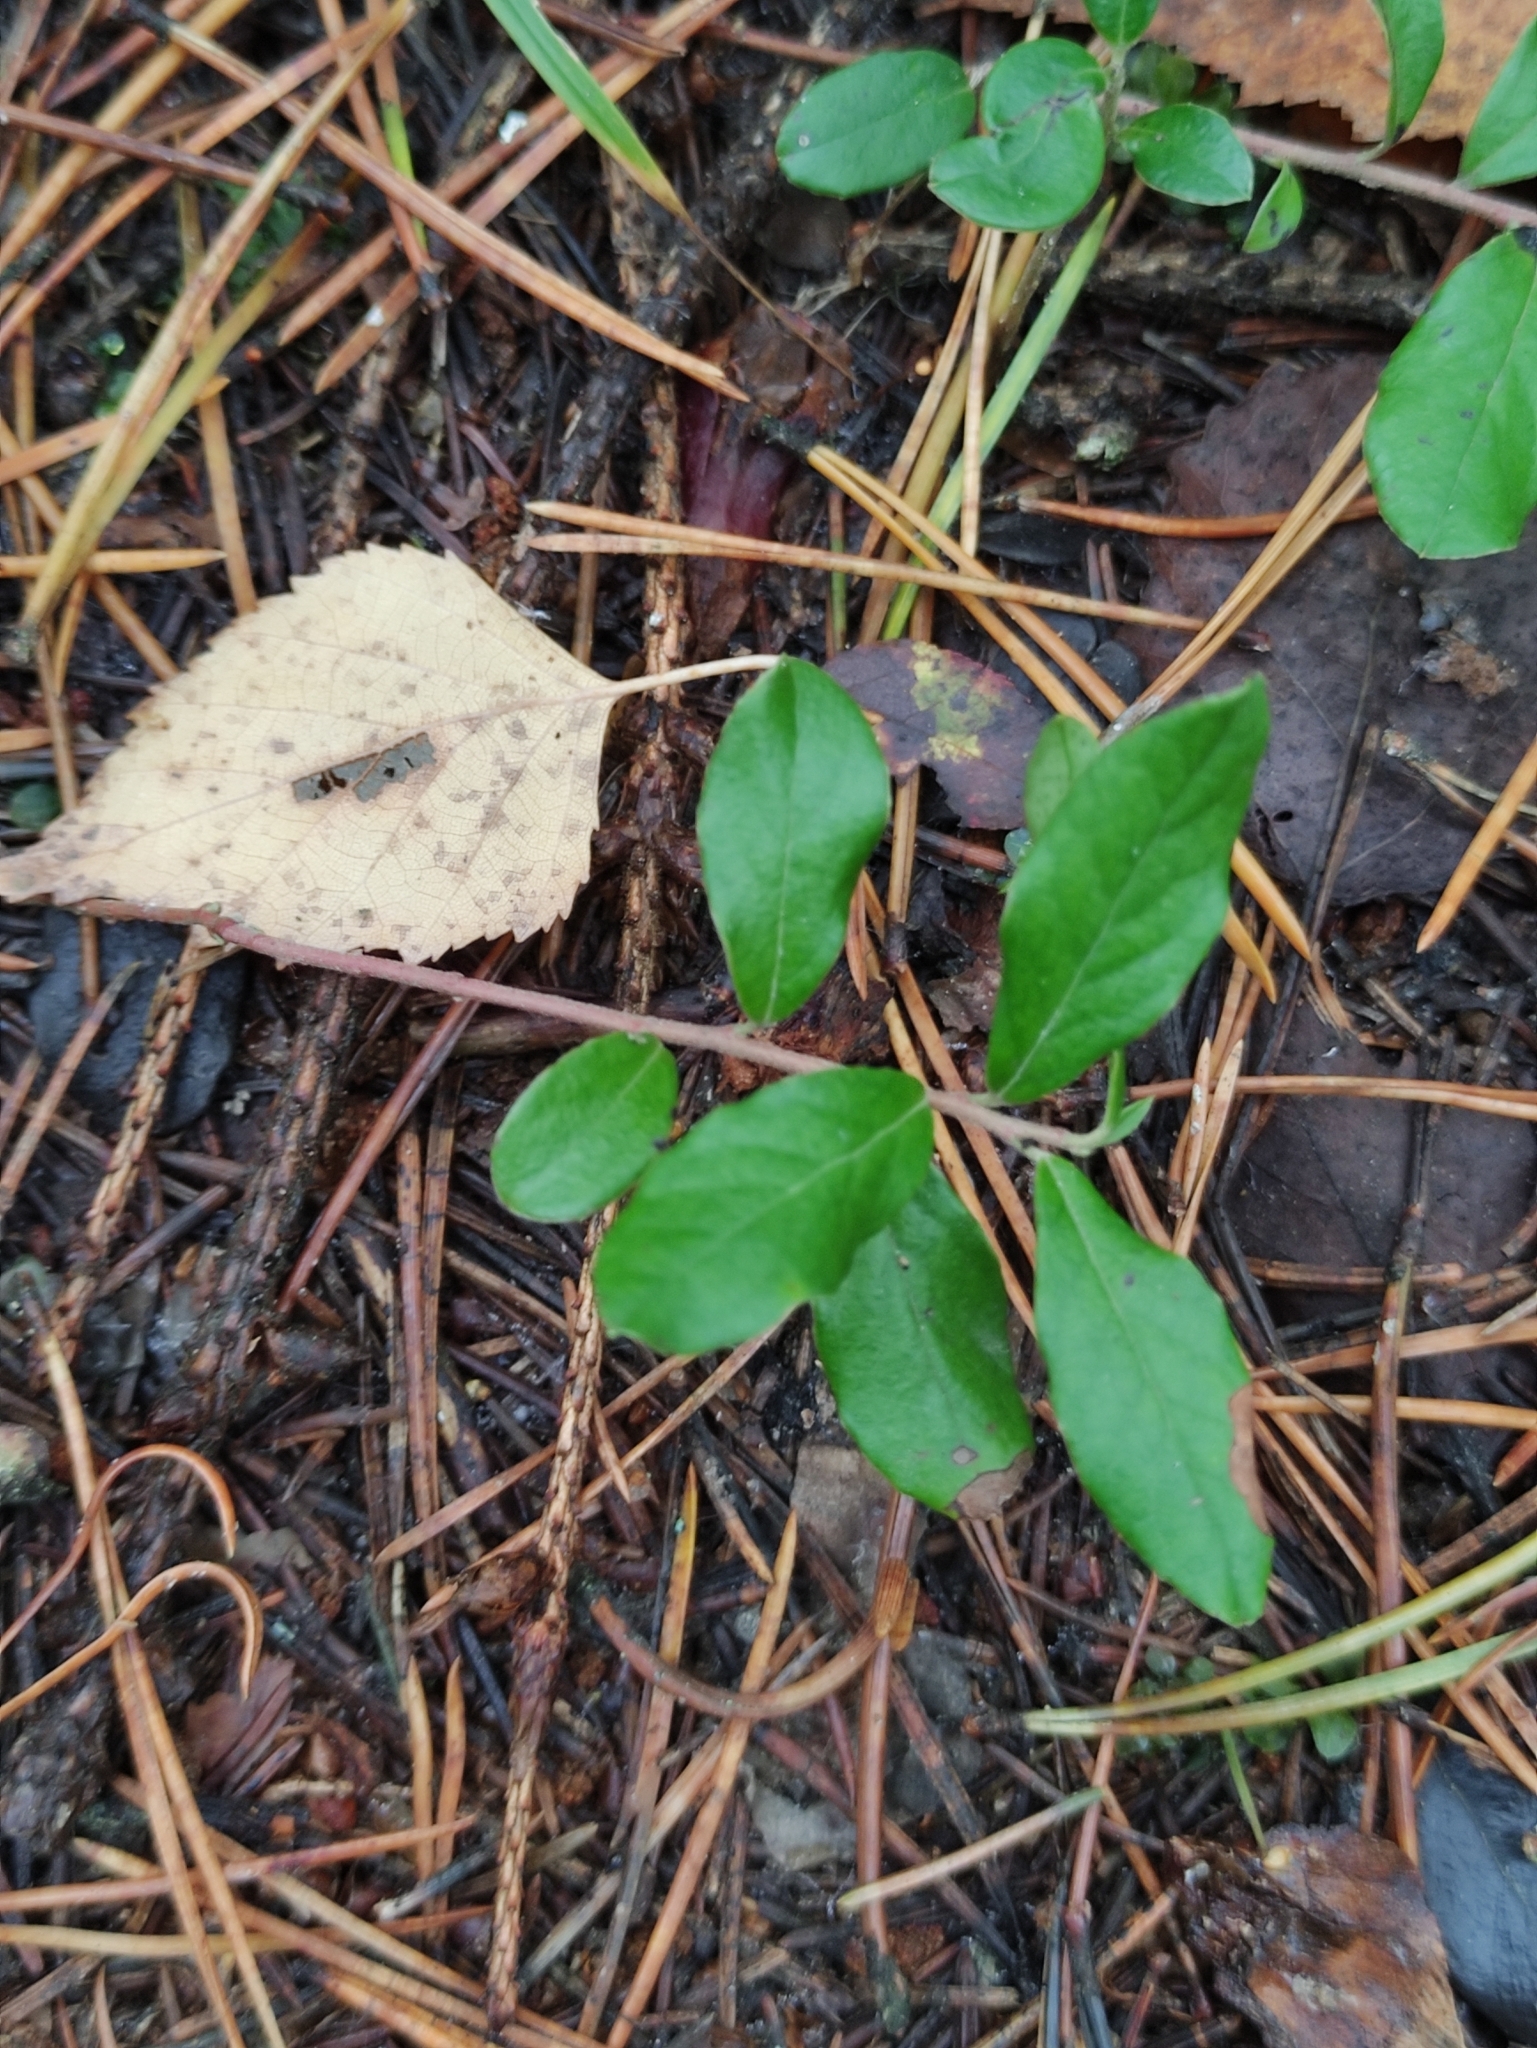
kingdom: Plantae
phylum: Tracheophyta
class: Magnoliopsida
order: Ericales
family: Ericaceae
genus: Vaccinium
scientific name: Vaccinium vitis-idaea
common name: Cowberry
